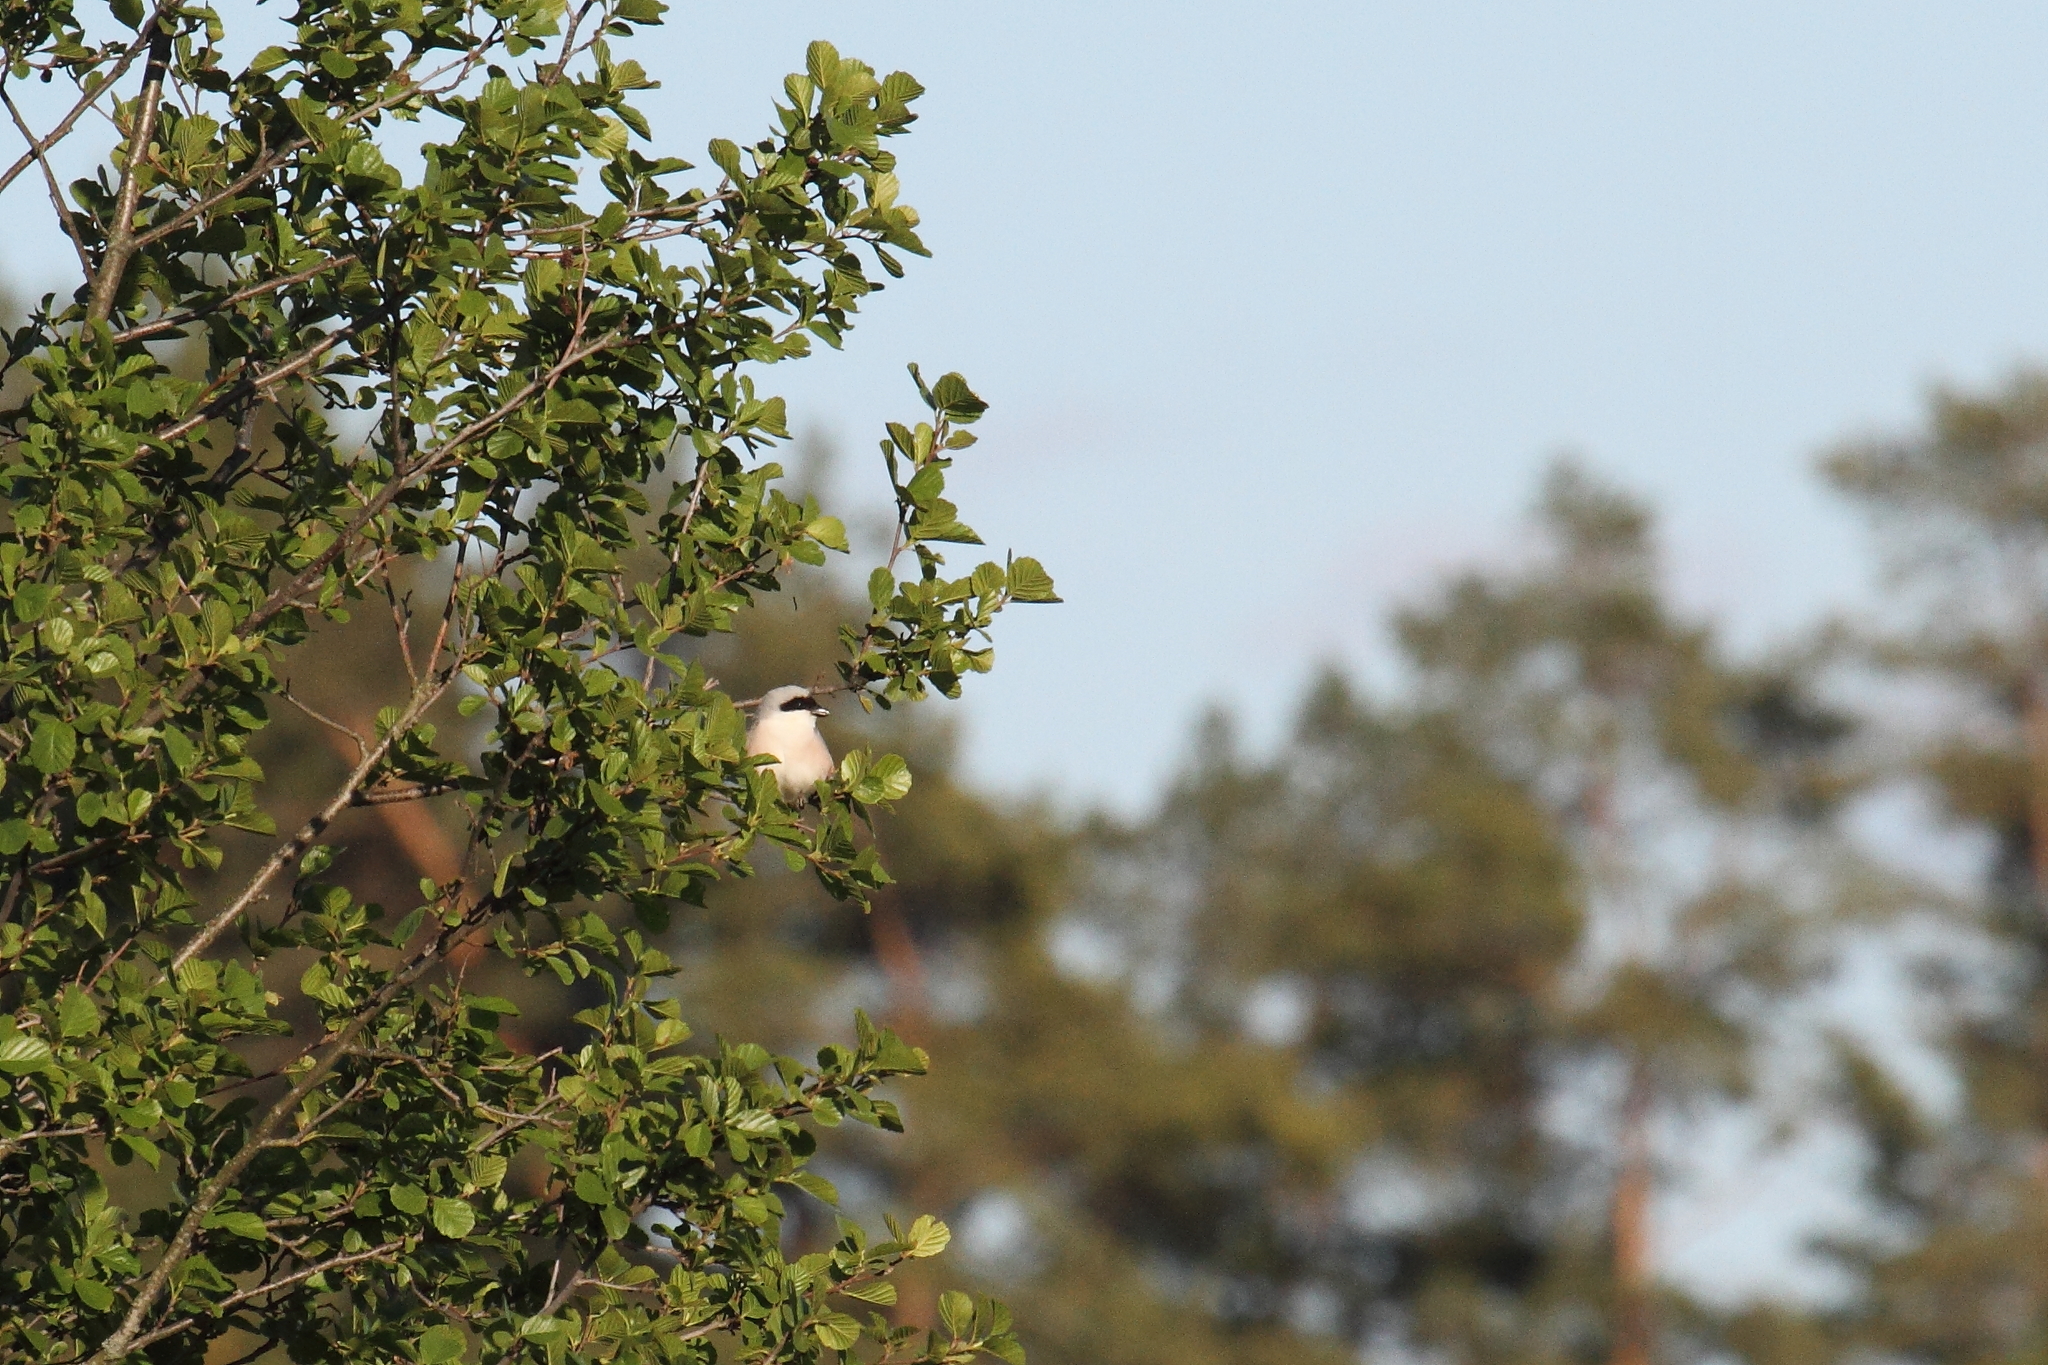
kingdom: Animalia
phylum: Chordata
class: Aves
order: Passeriformes
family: Laniidae
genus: Lanius
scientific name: Lanius minor
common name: Lesser grey shrike
